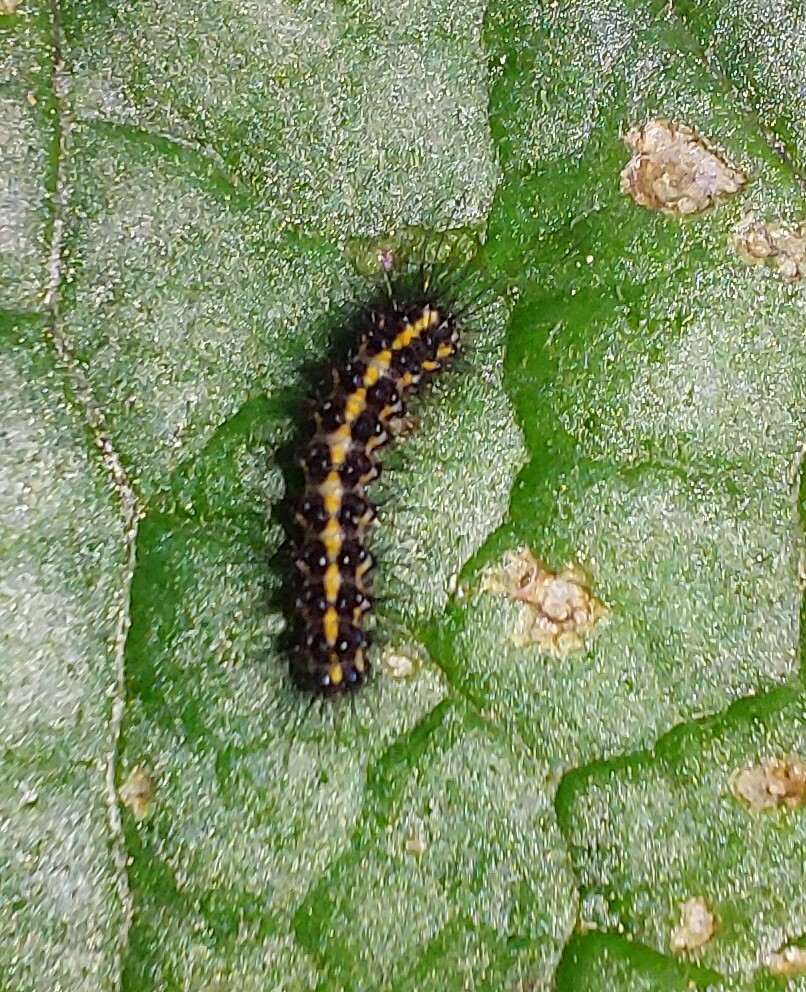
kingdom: Animalia
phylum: Arthropoda
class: Insecta
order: Lepidoptera
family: Erebidae
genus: Nyctemera
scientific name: Nyctemera annulatum
